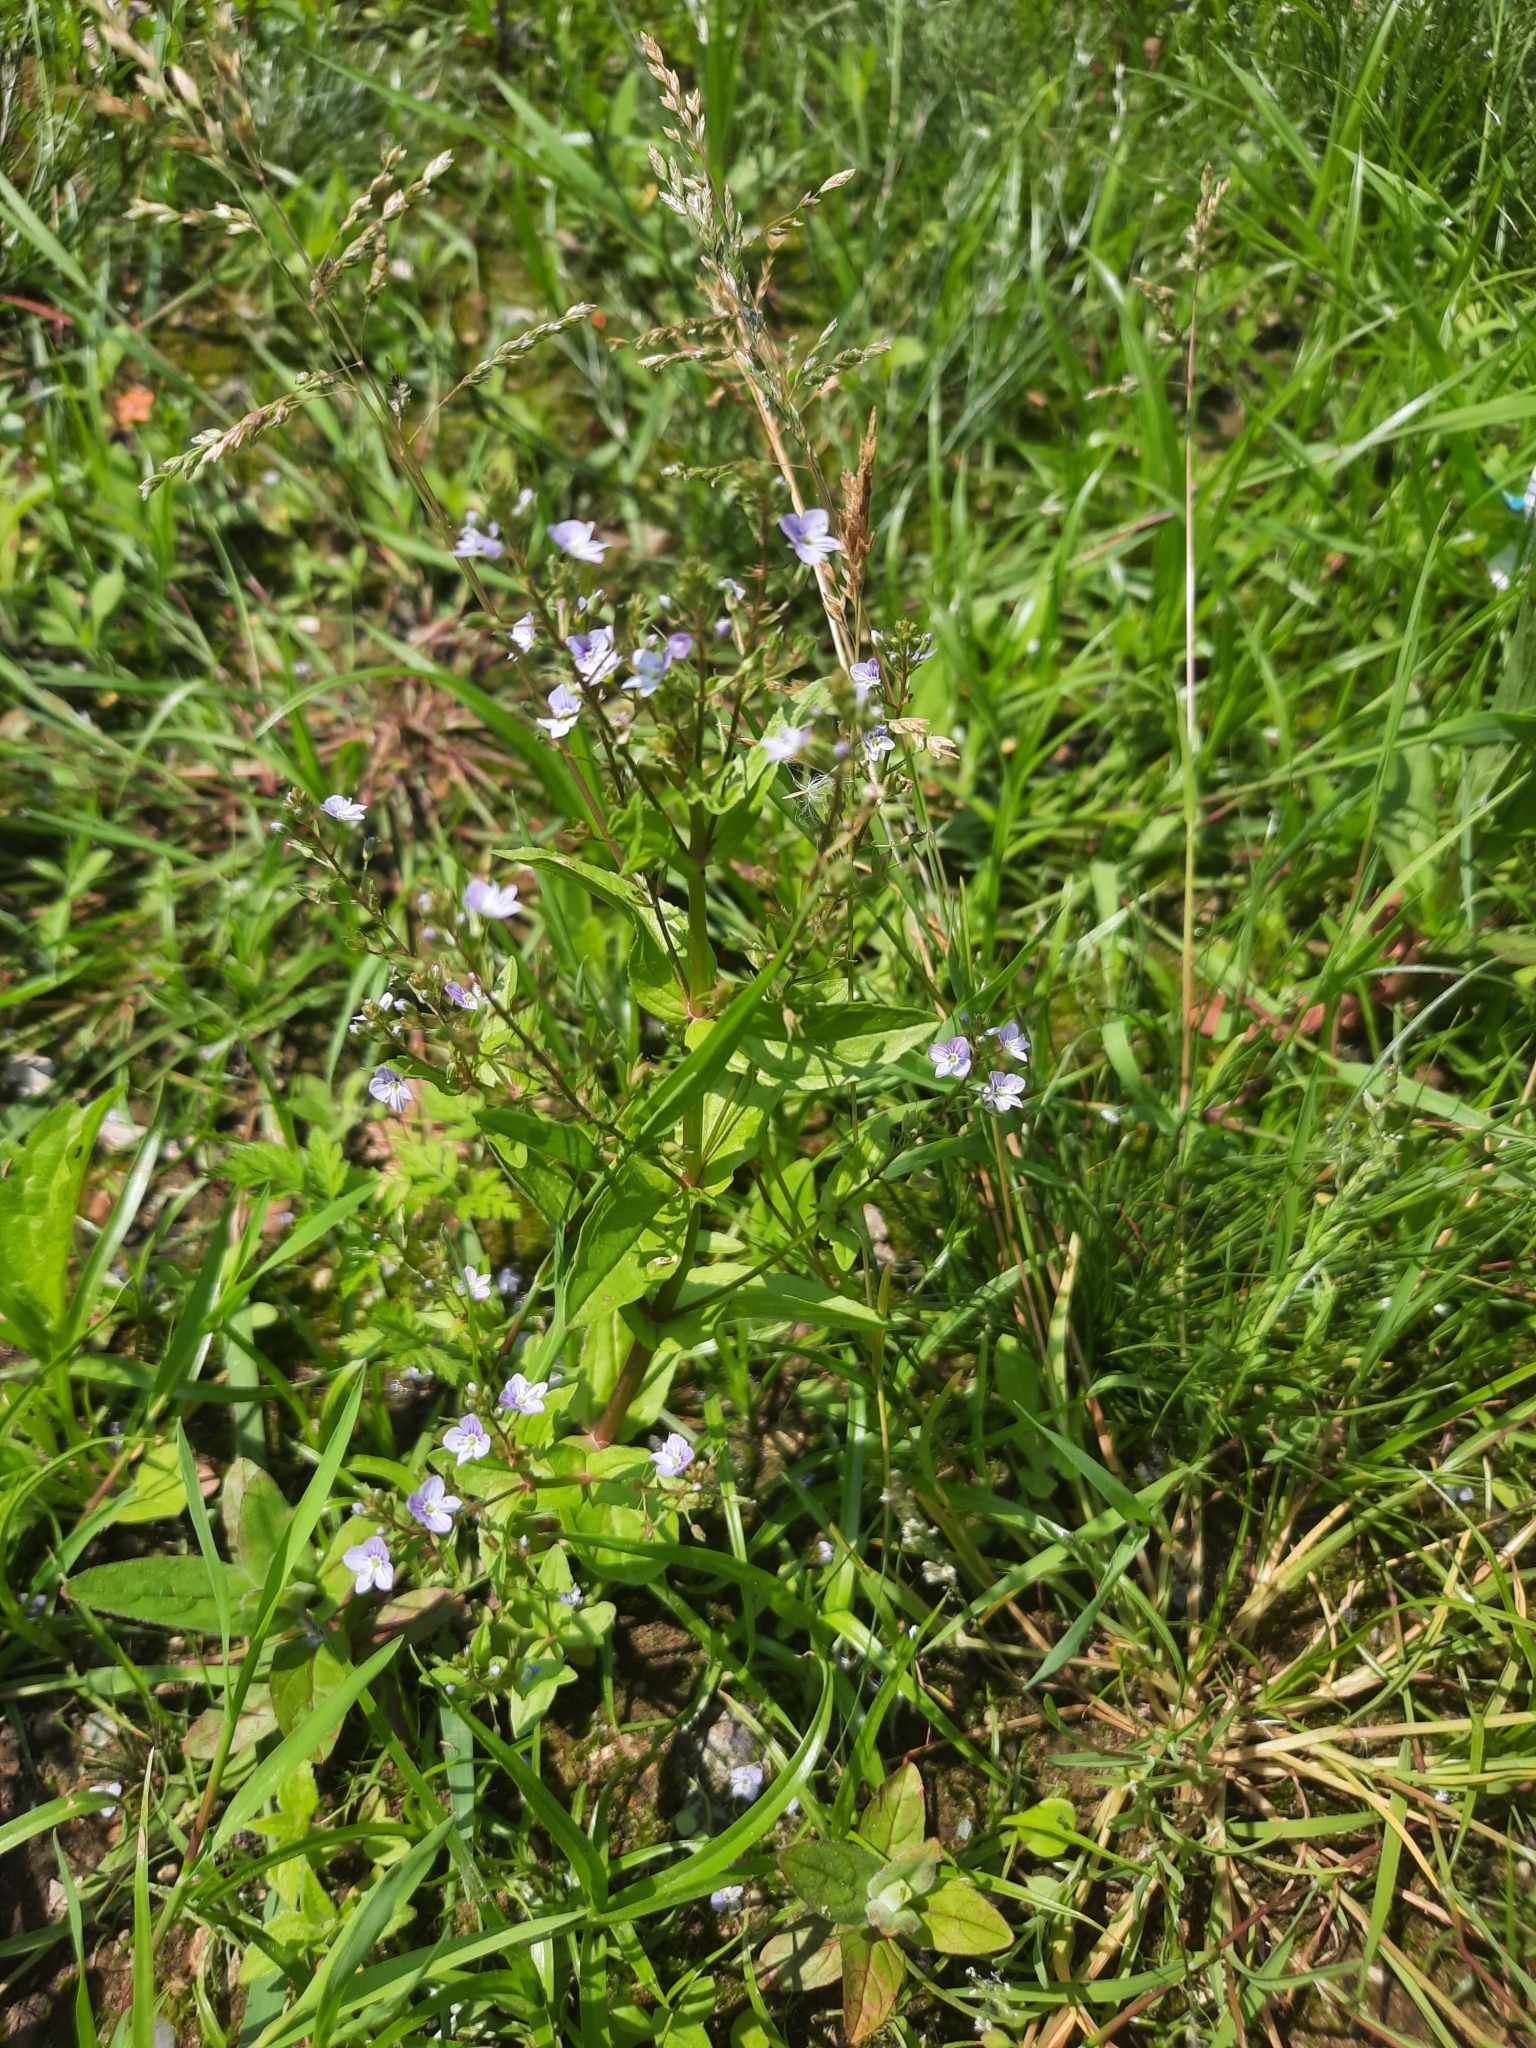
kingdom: Plantae
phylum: Tracheophyta
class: Magnoliopsida
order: Lamiales
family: Plantaginaceae
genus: Veronica
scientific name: Veronica anagallis-aquatica
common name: Water speedwell
